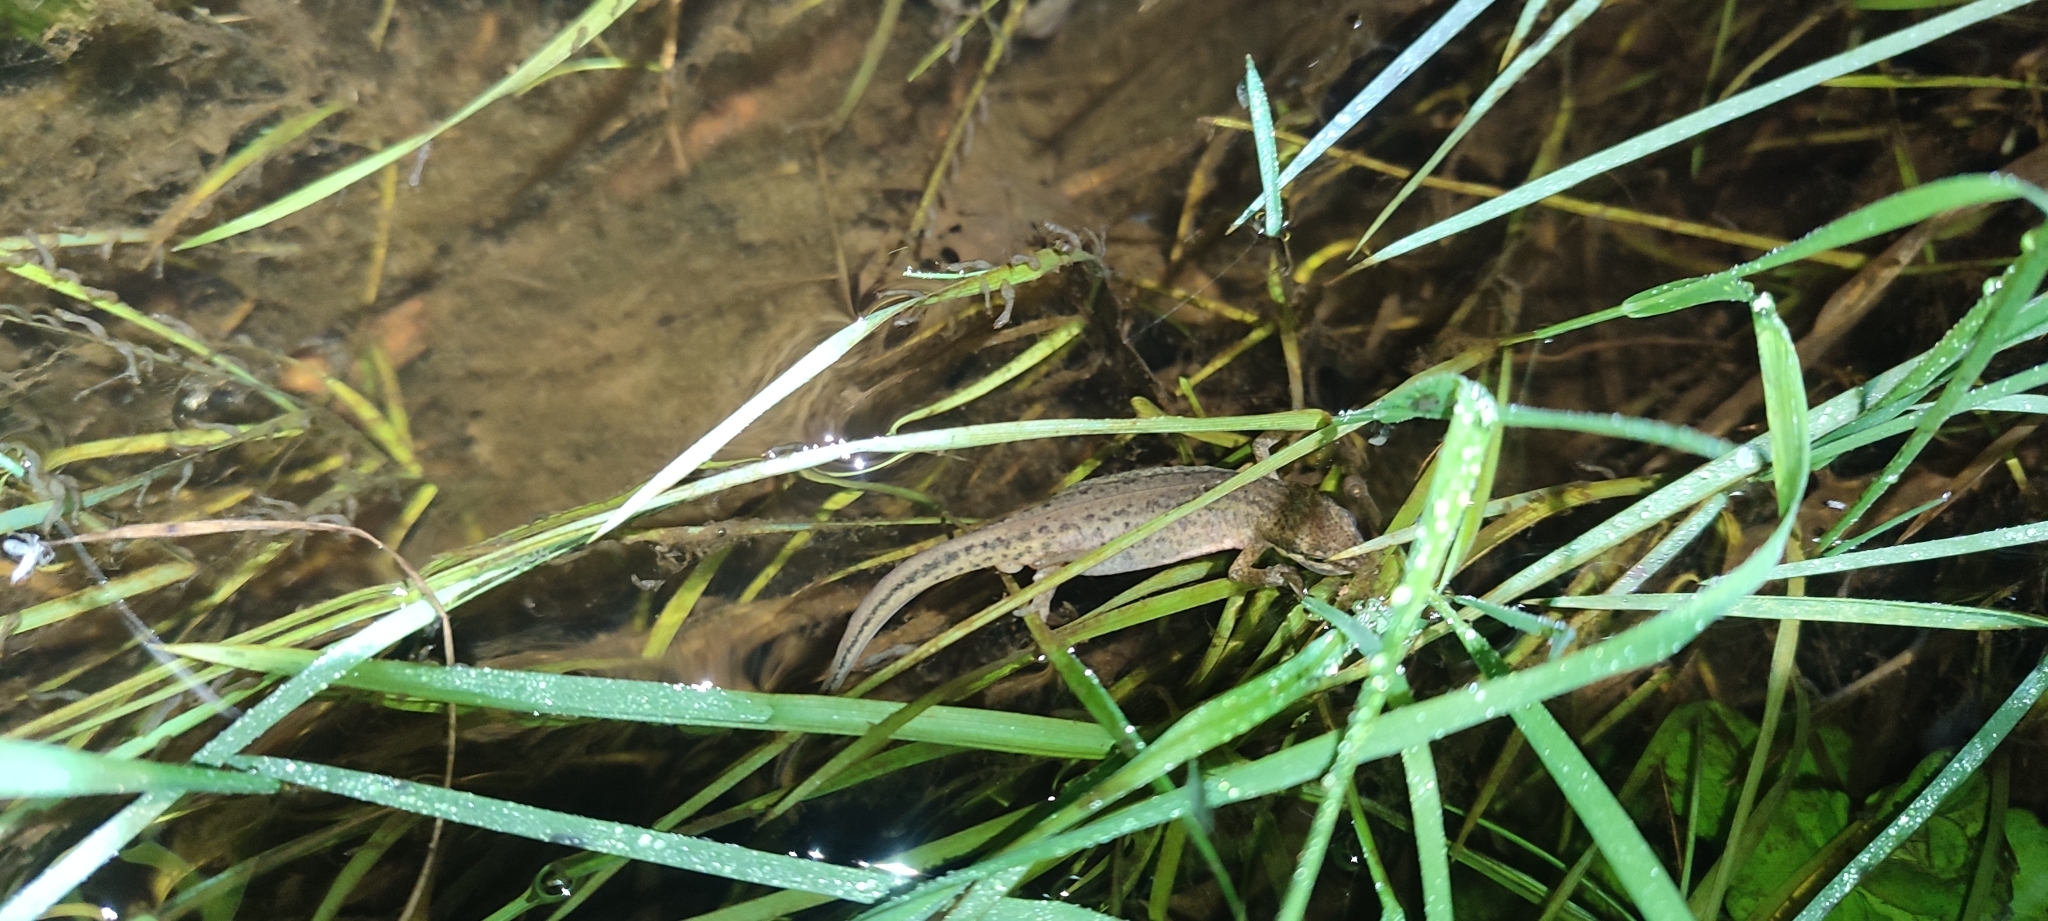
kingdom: Animalia
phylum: Chordata
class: Amphibia
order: Caudata
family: Salamandridae
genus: Lissotriton
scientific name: Lissotriton helveticus
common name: Palmate newt
